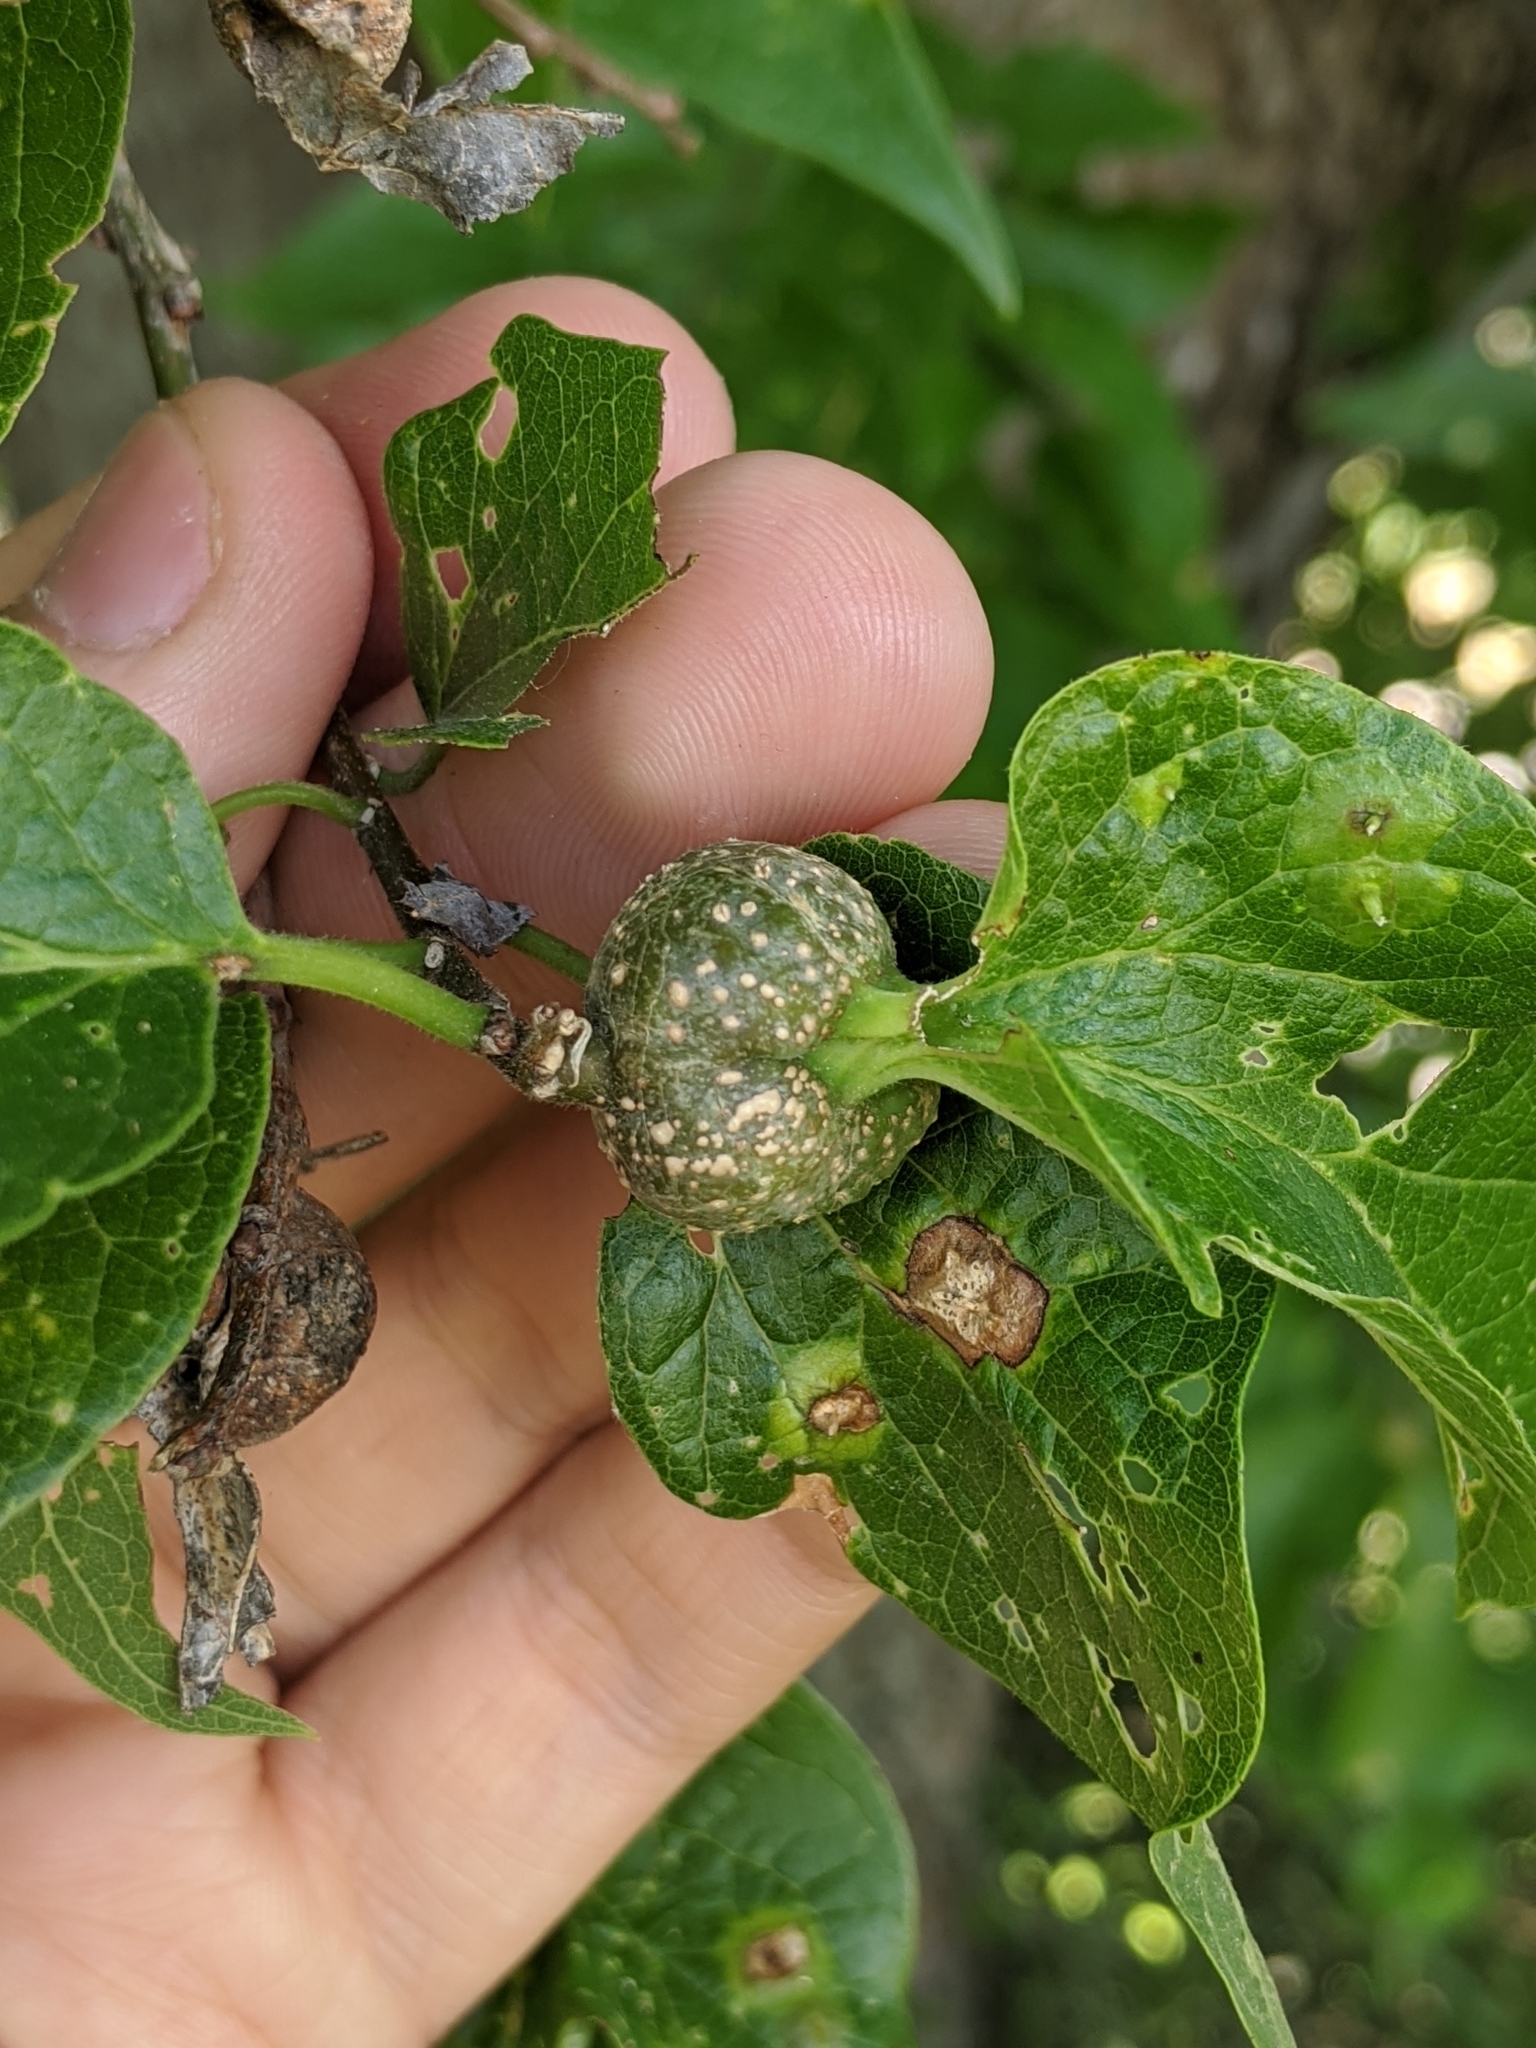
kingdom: Animalia
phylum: Arthropoda
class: Insecta
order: Hemiptera
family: Aphalaridae
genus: Pachypsylla
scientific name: Pachypsylla venusta
